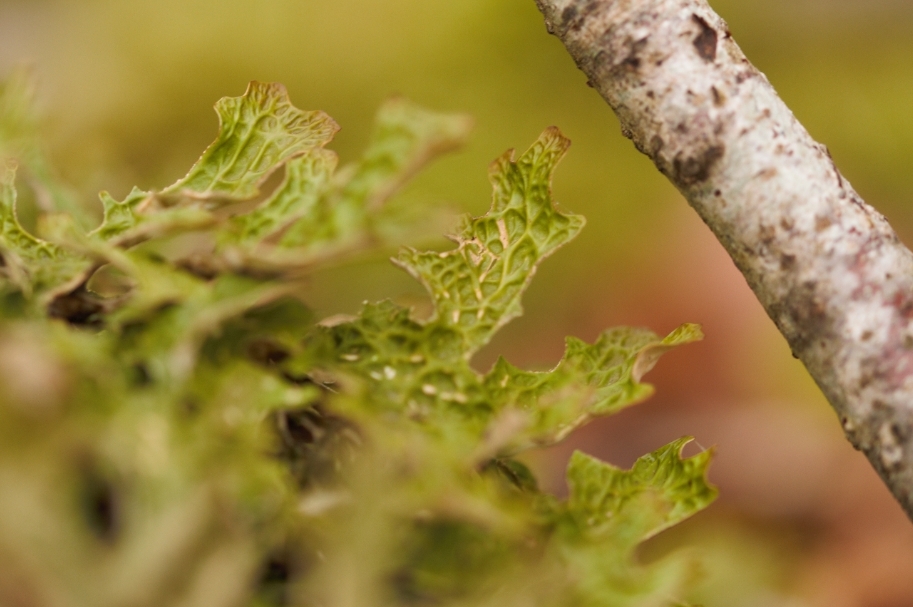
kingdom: Fungi
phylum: Ascomycota
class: Lecanoromycetes
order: Peltigerales
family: Lobariaceae
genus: Lobaria
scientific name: Lobaria pulmonaria
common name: Lungwort
